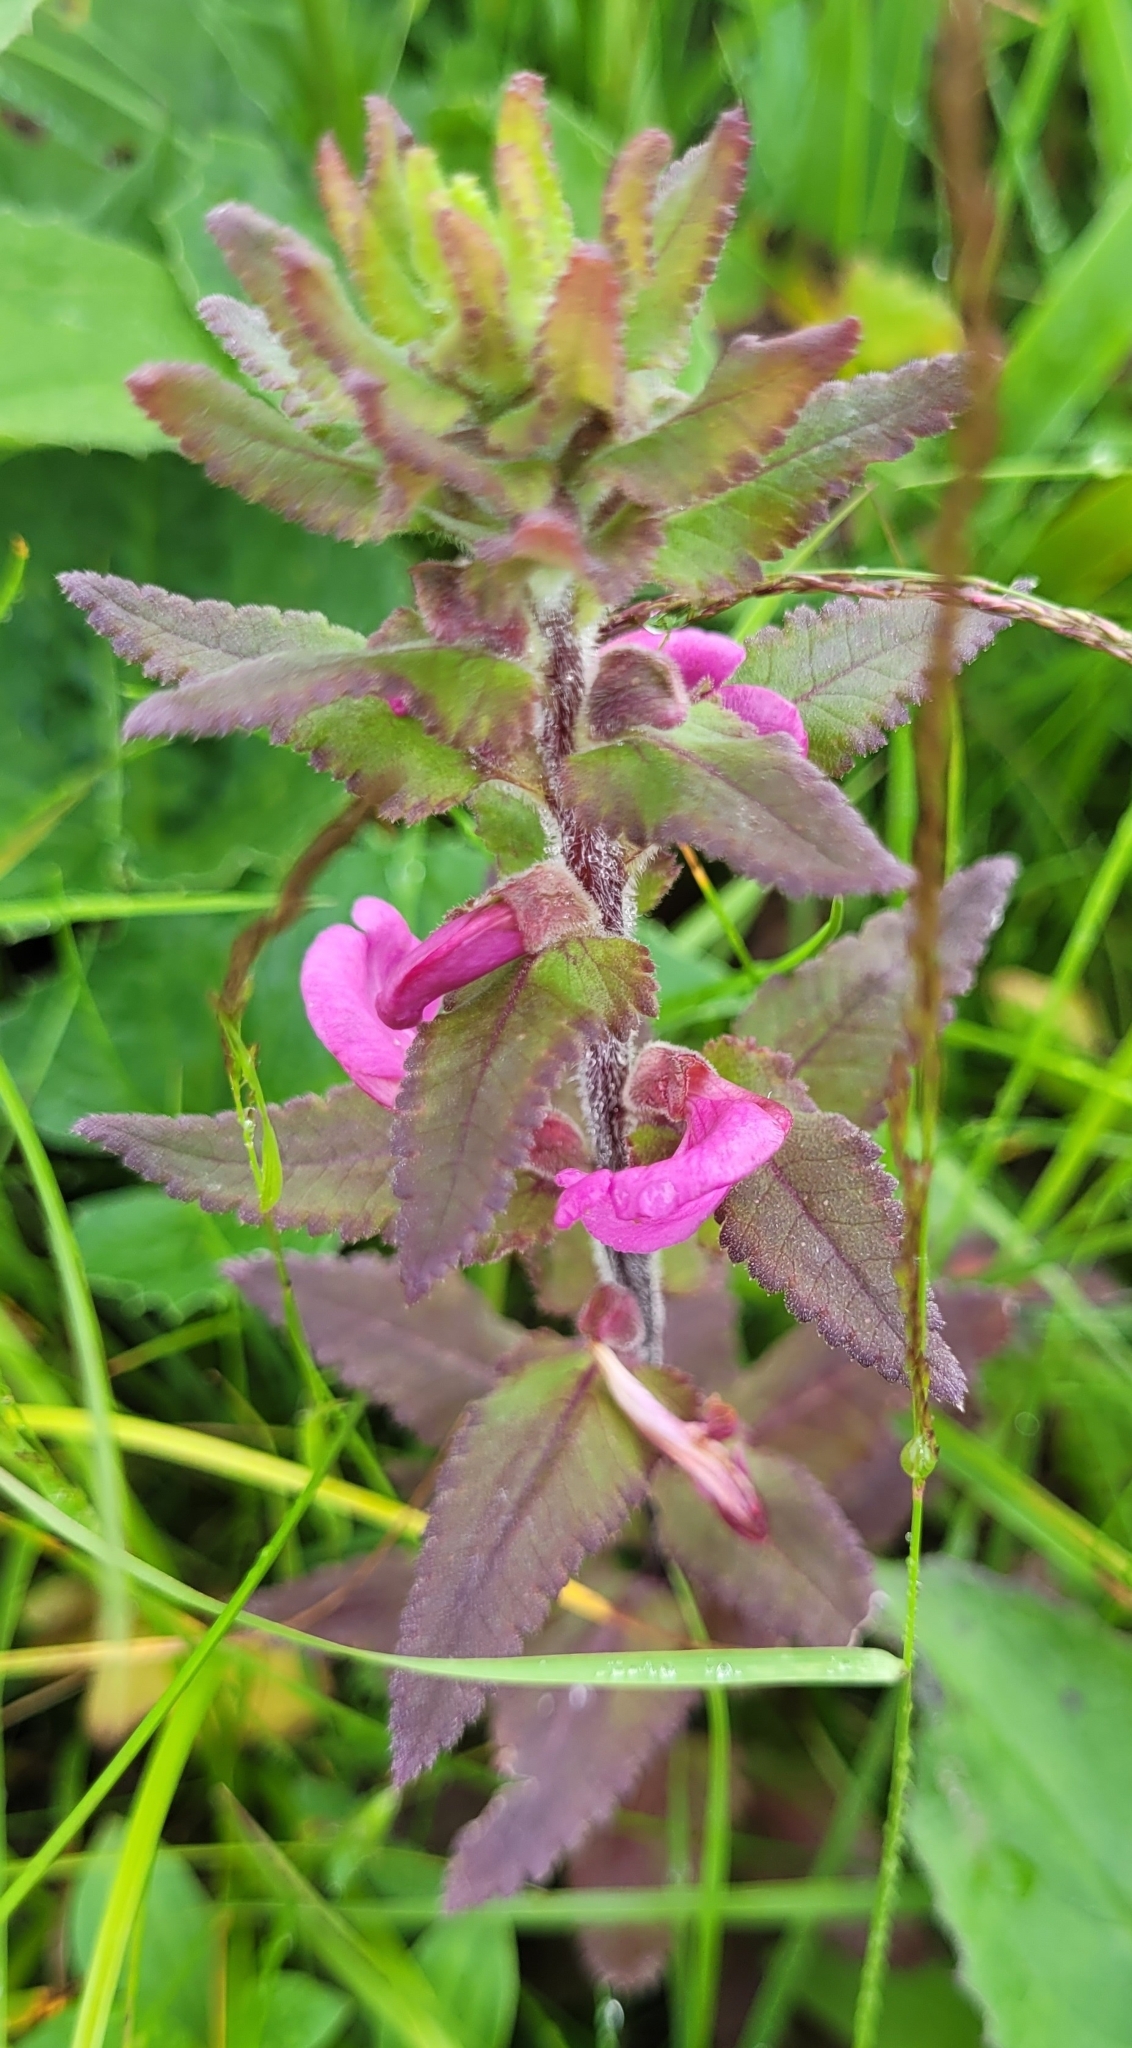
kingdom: Plantae
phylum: Tracheophyta
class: Magnoliopsida
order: Lamiales
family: Orobanchaceae
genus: Pedicularis
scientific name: Pedicularis resupinata
